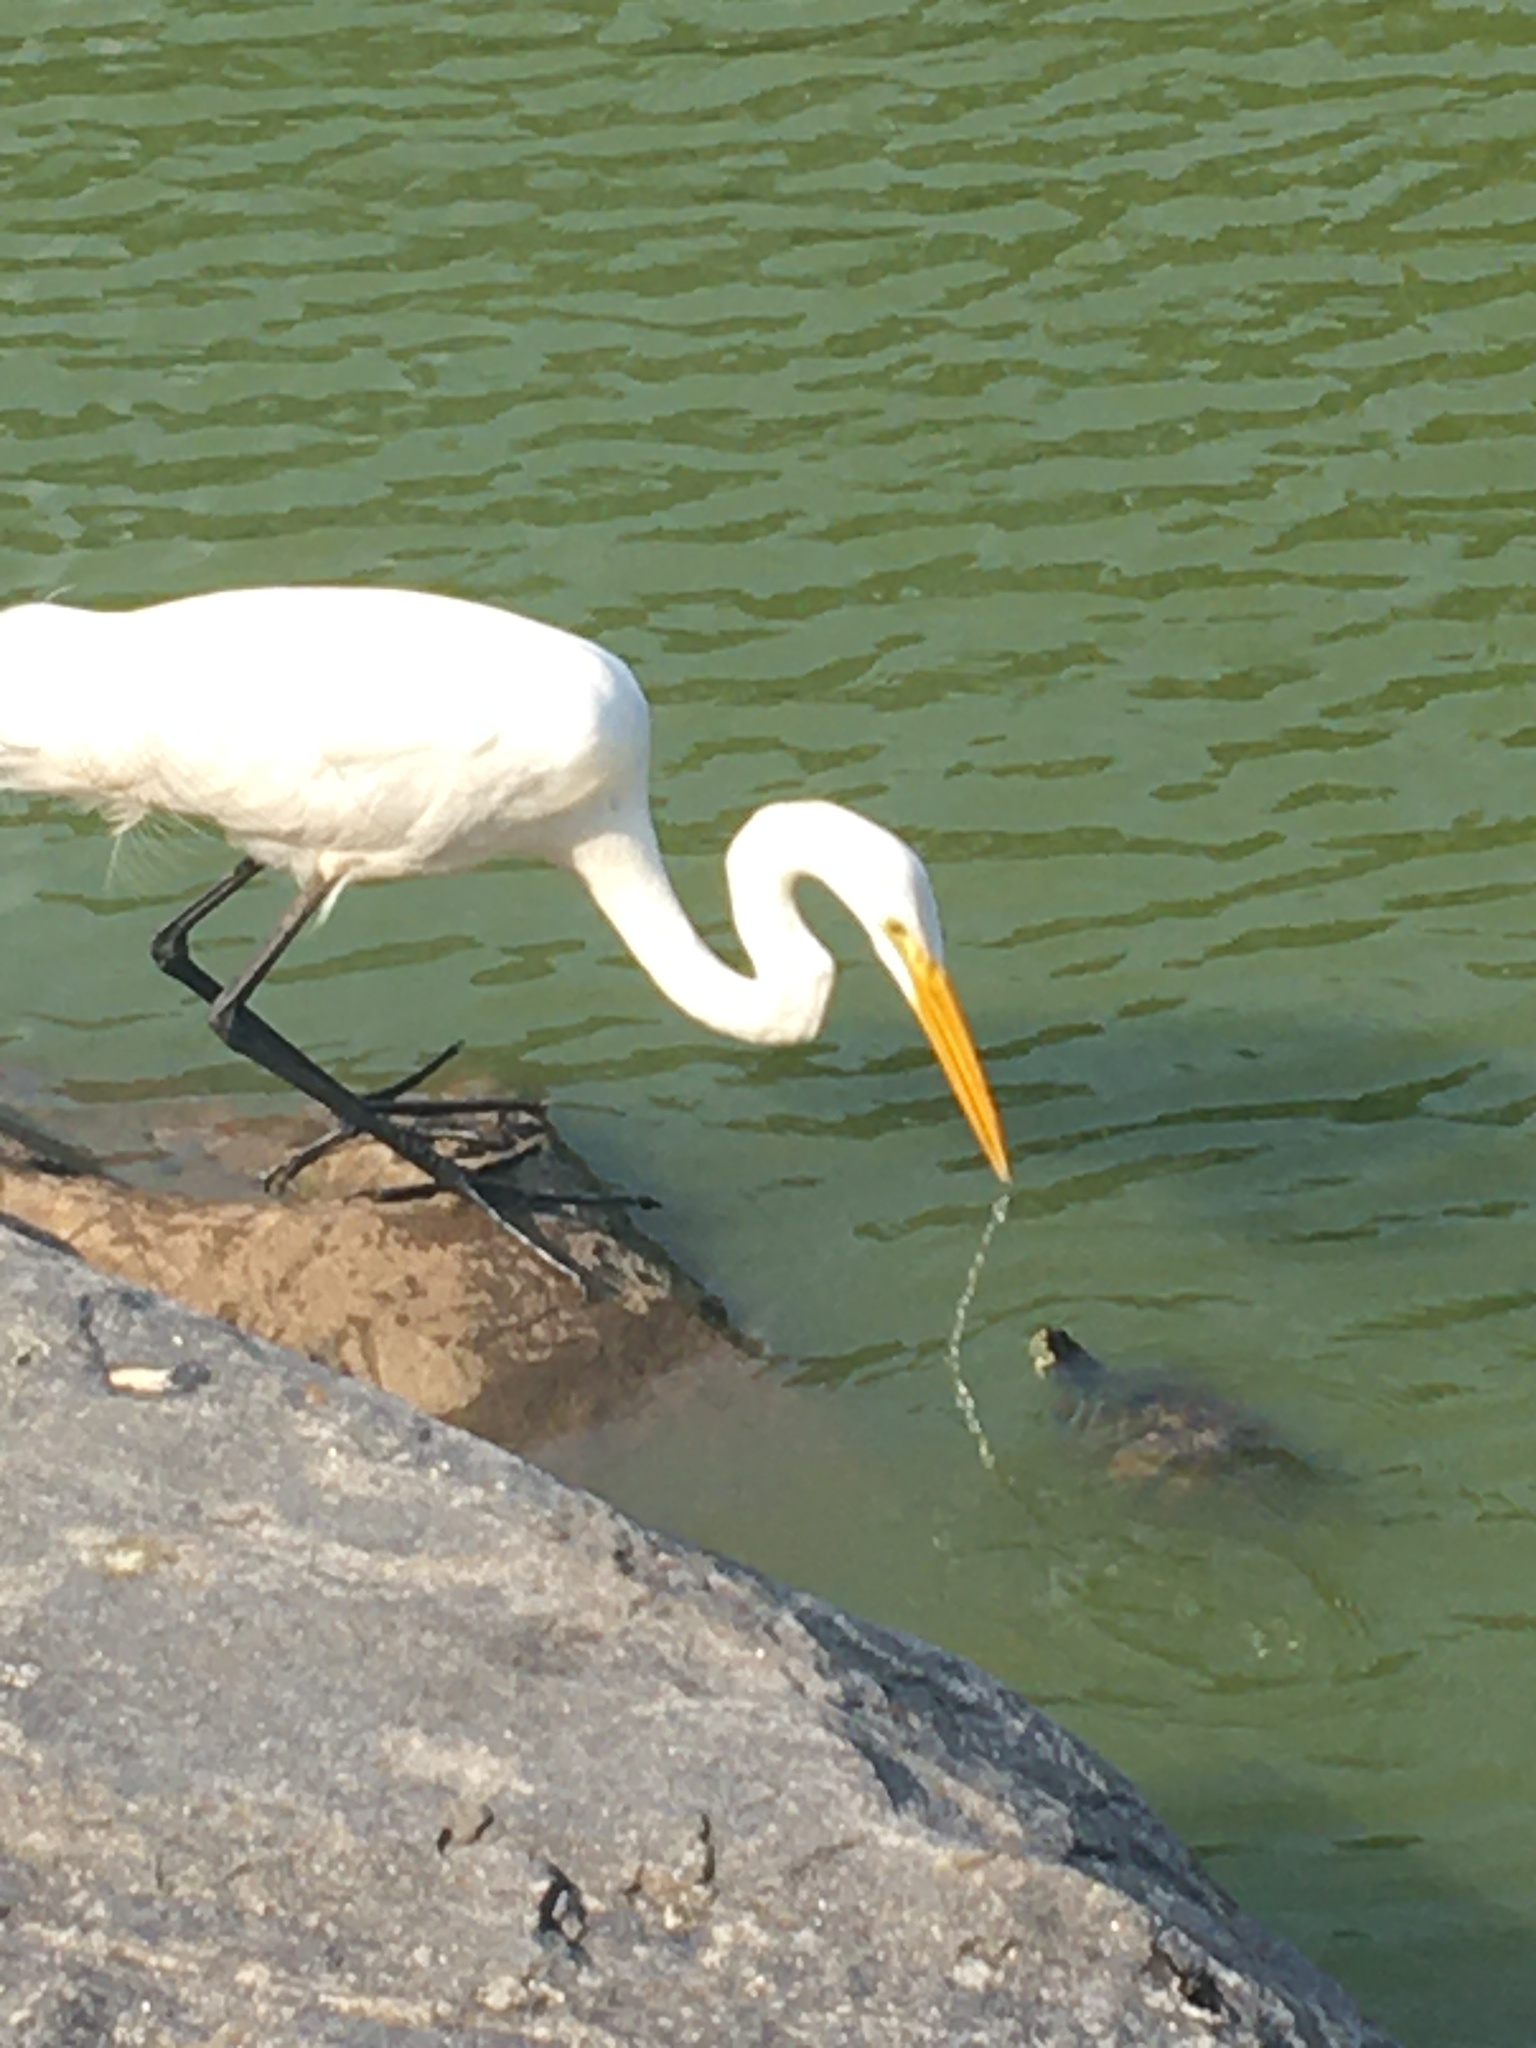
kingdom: Animalia
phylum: Chordata
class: Aves
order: Pelecaniformes
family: Ardeidae
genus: Ardea
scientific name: Ardea alba
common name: Great egret
